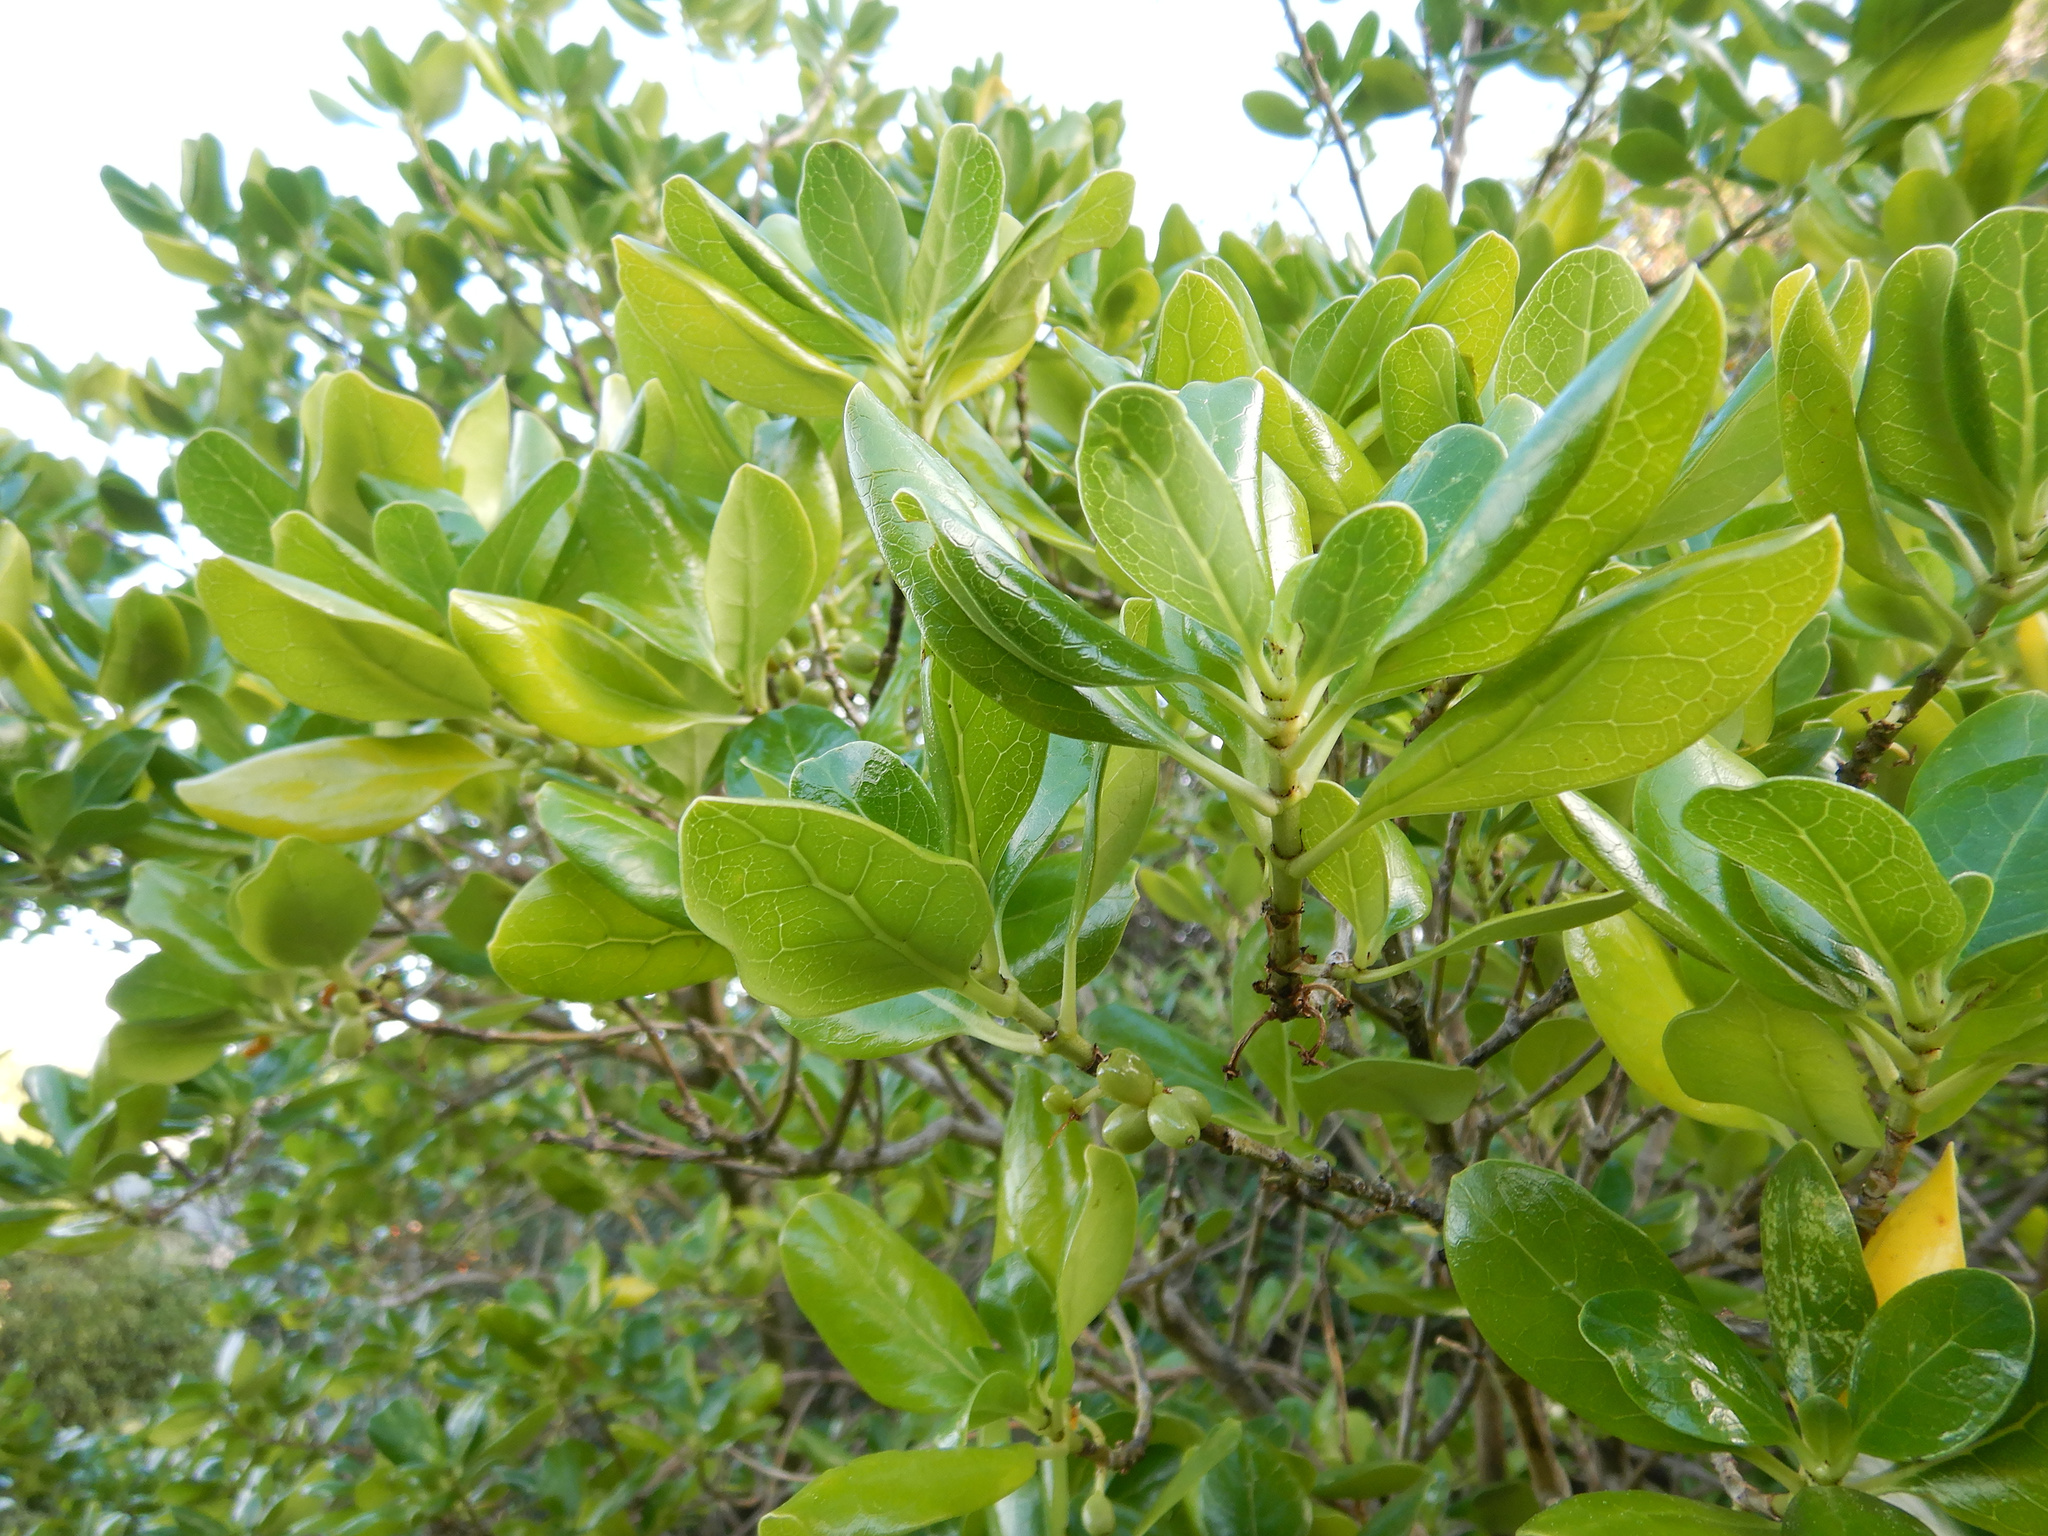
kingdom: Plantae
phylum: Tracheophyta
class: Magnoliopsida
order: Gentianales
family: Rubiaceae
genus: Coprosma
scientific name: Coprosma repens
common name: Tree bedstraw
